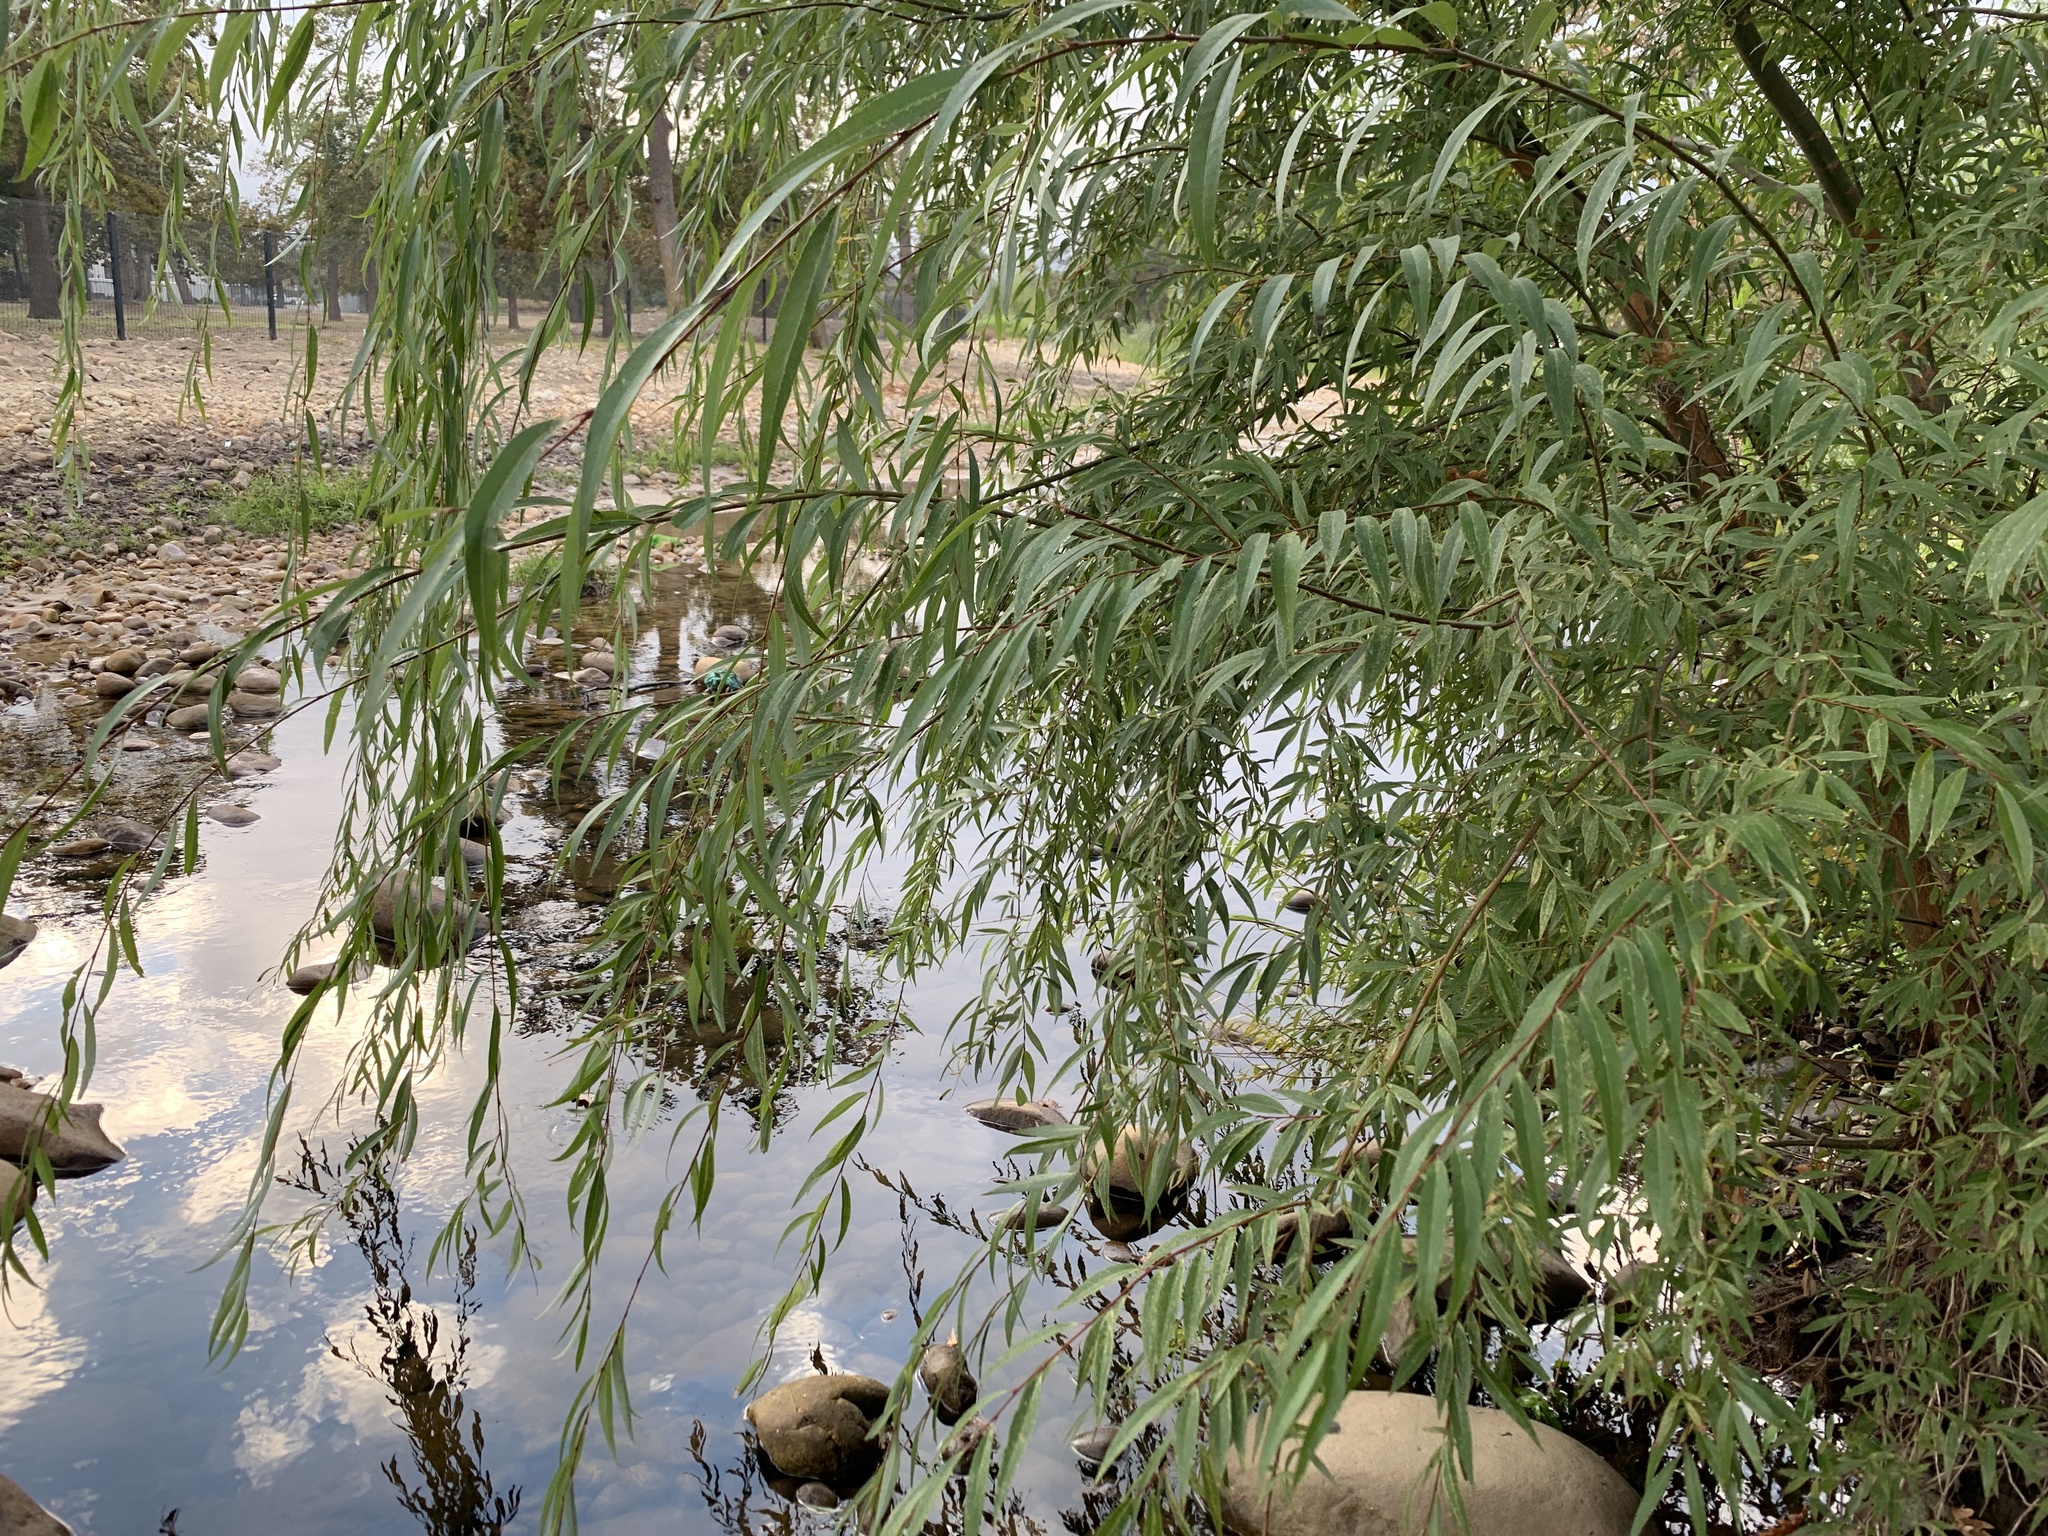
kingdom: Plantae
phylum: Tracheophyta
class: Magnoliopsida
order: Malpighiales
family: Salicaceae
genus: Salix
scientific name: Salix mucronata
